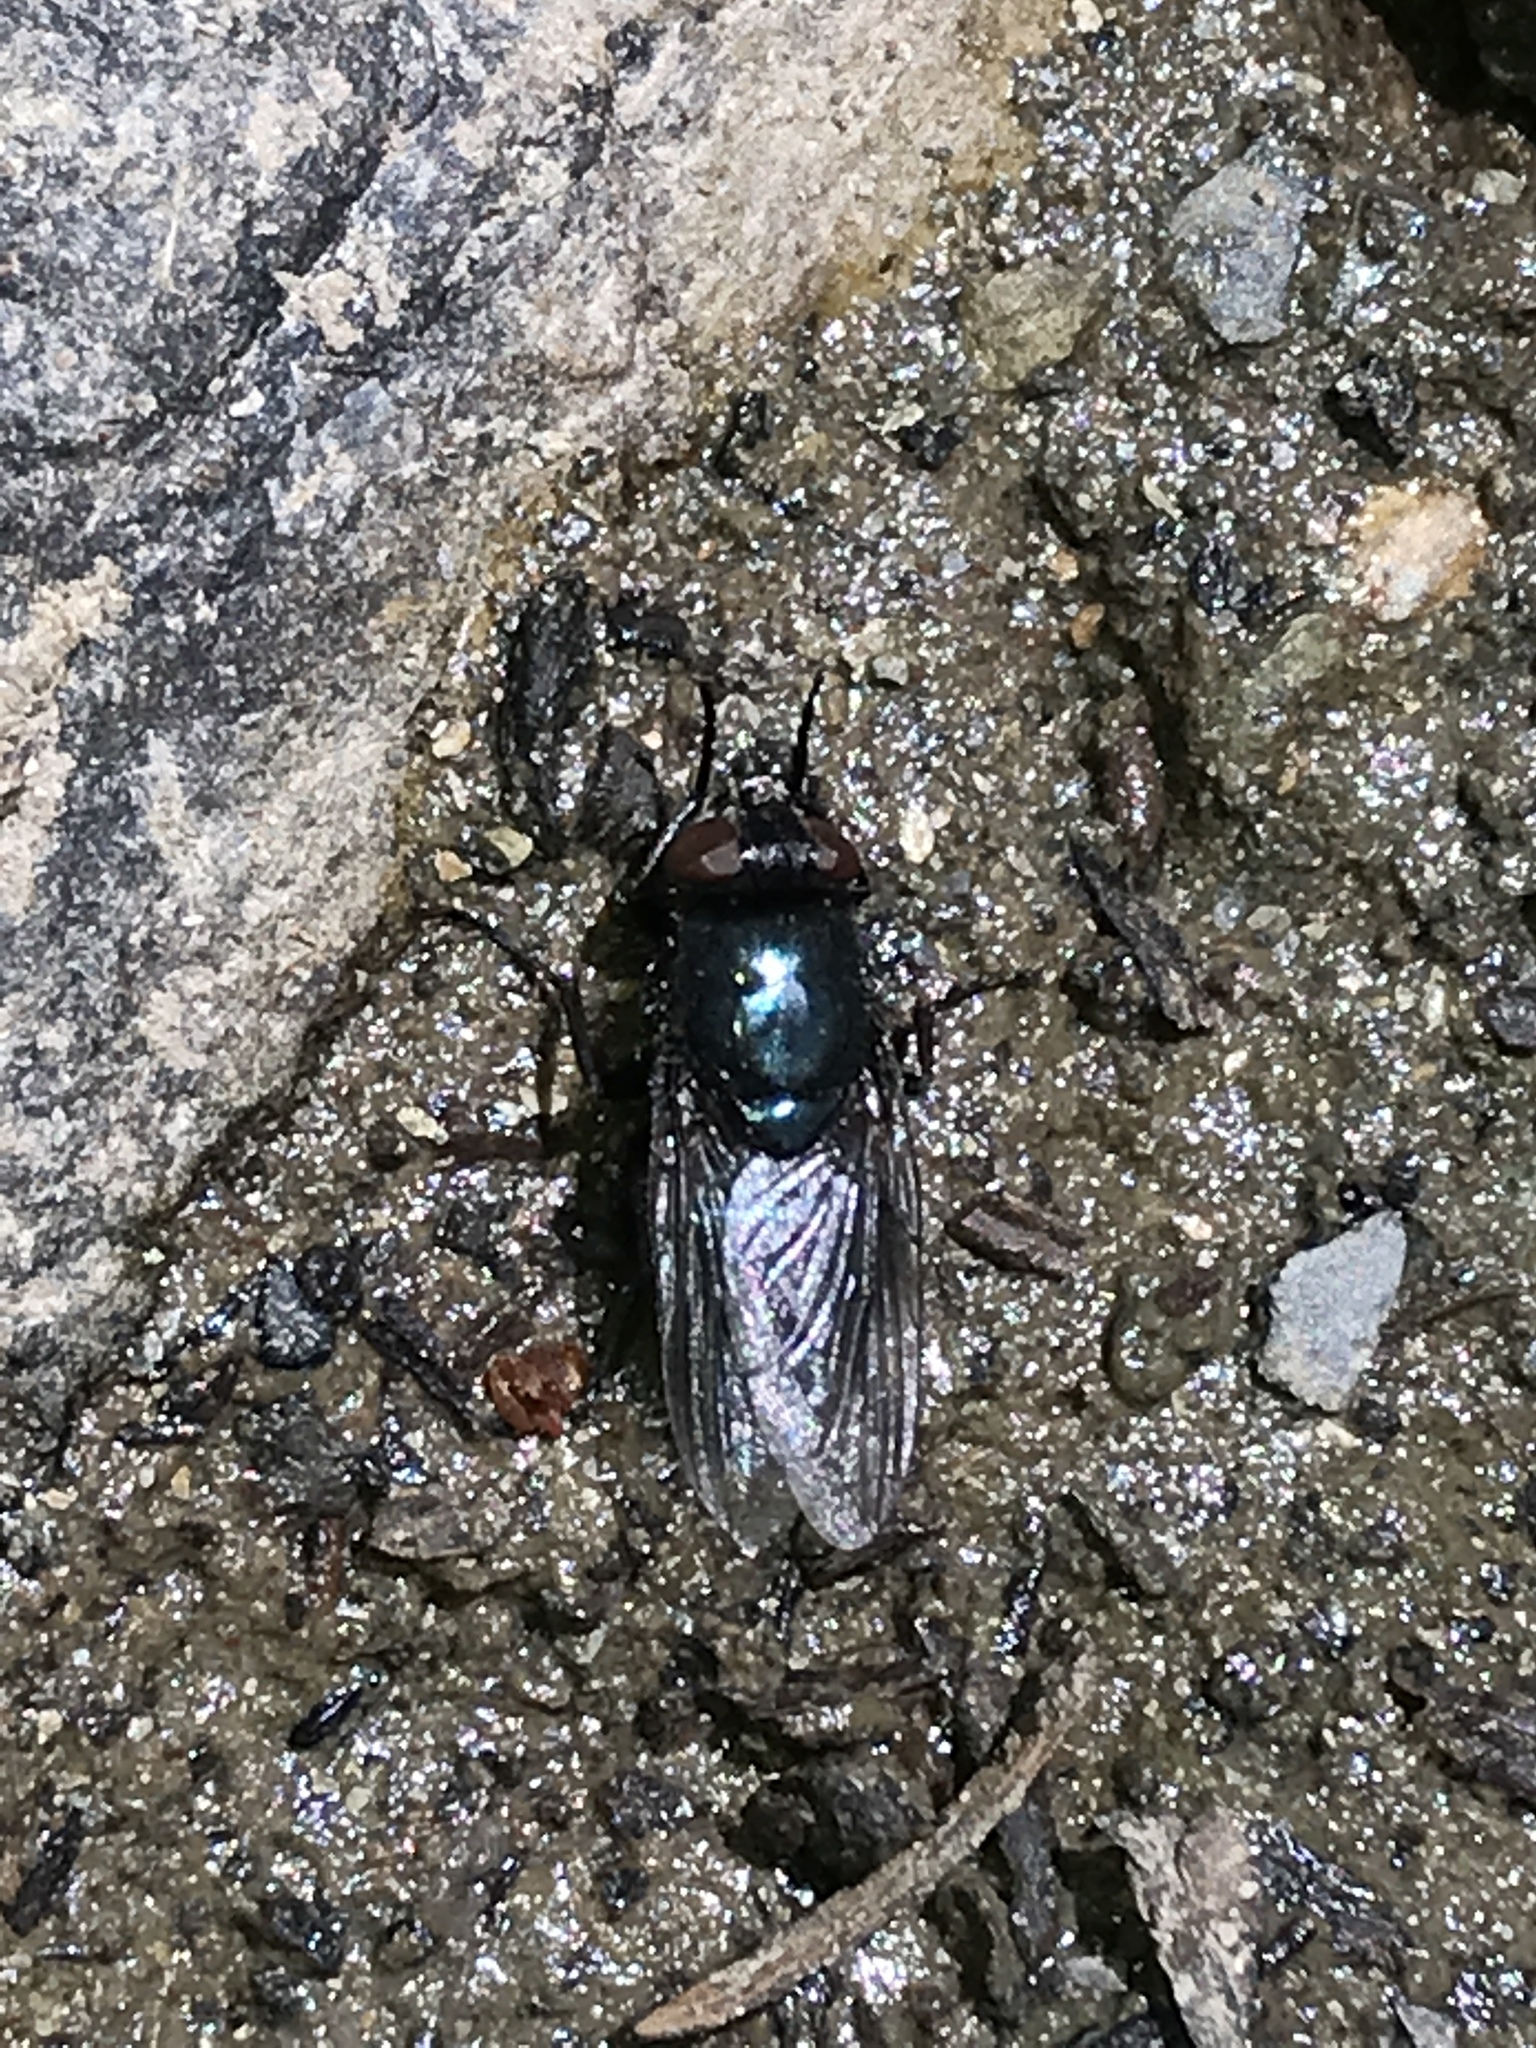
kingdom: Animalia
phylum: Arthropoda
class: Insecta
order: Diptera
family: Calliphoridae
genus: Protophormia
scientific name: Protophormia terraenovae
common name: Blackbottle
